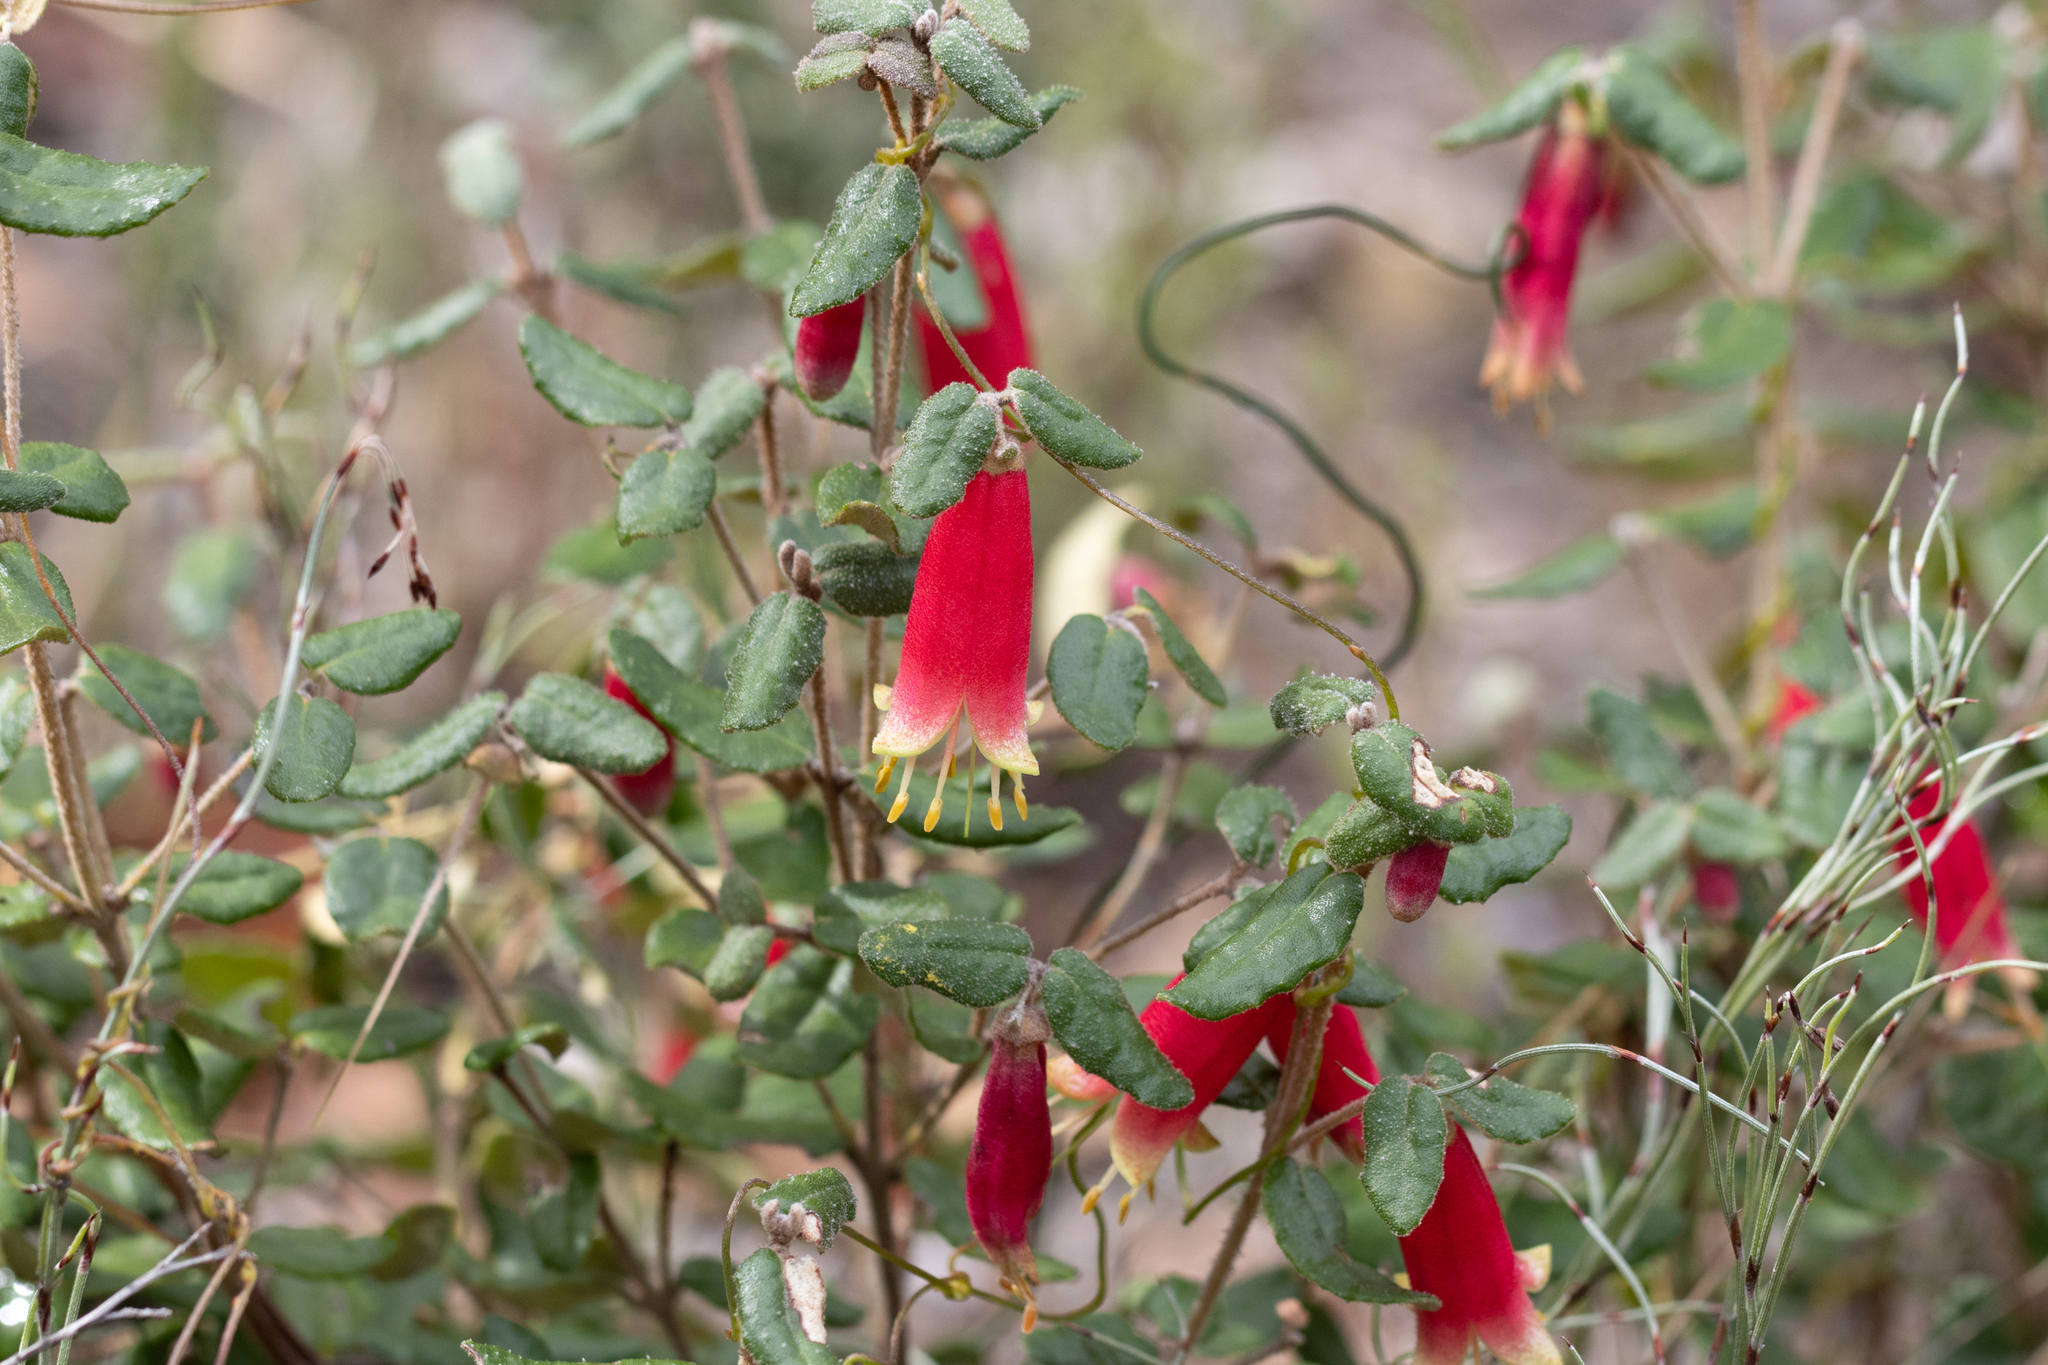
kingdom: Plantae
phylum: Tracheophyta
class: Magnoliopsida
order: Sapindales
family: Rutaceae
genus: Correa
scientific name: Correa reflexa
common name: Common correa
